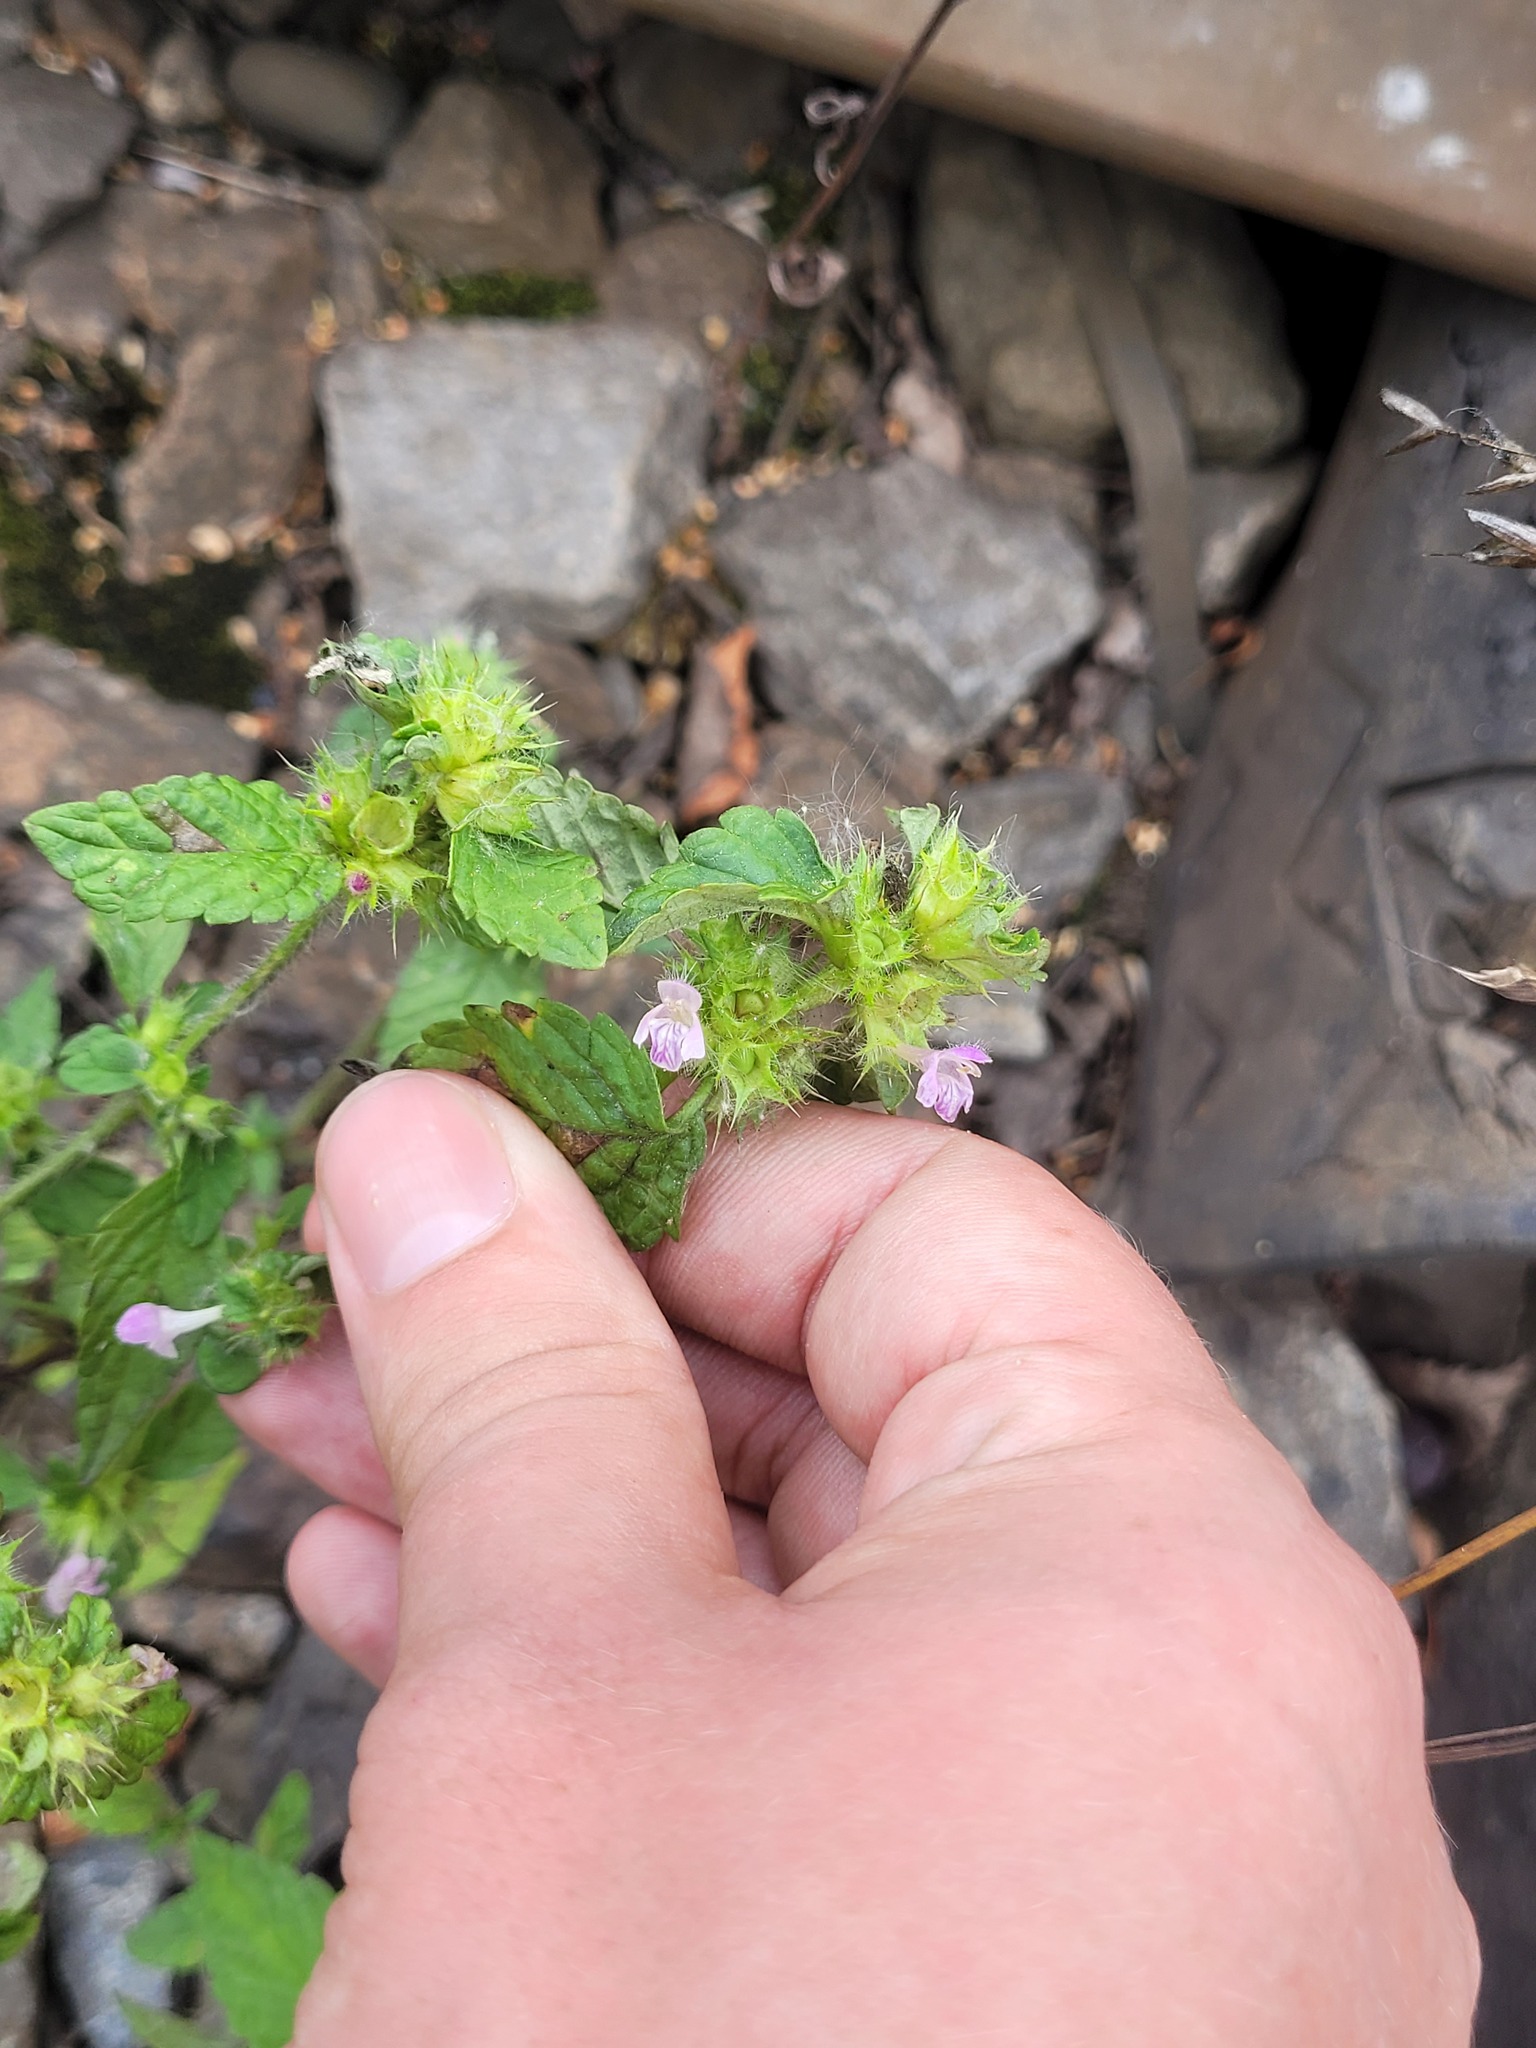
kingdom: Plantae
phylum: Tracheophyta
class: Magnoliopsida
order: Lamiales
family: Lamiaceae
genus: Galeopsis
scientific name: Galeopsis bifida
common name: Bifid hemp-nettle
